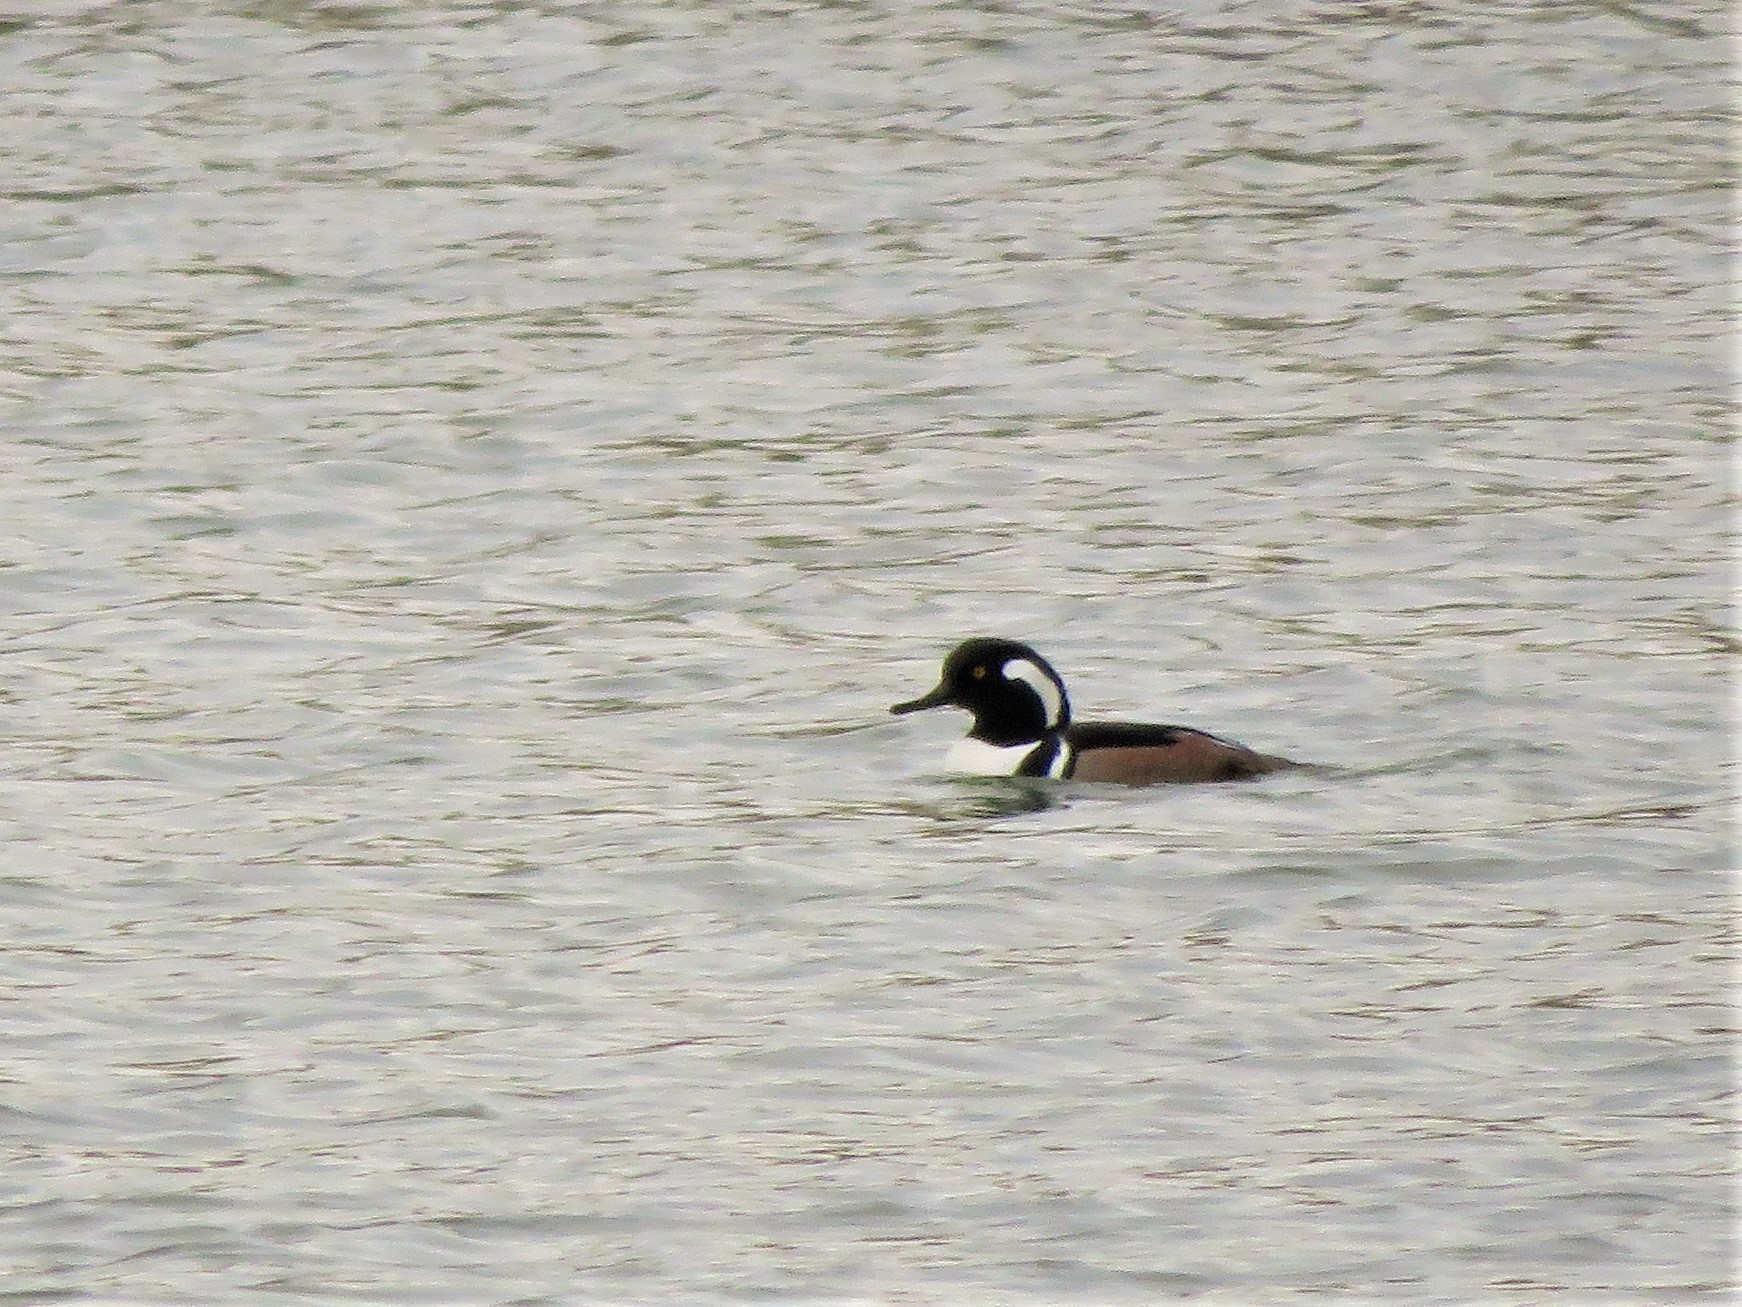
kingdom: Animalia
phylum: Chordata
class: Aves
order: Anseriformes
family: Anatidae
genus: Lophodytes
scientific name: Lophodytes cucullatus
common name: Hooded merganser
